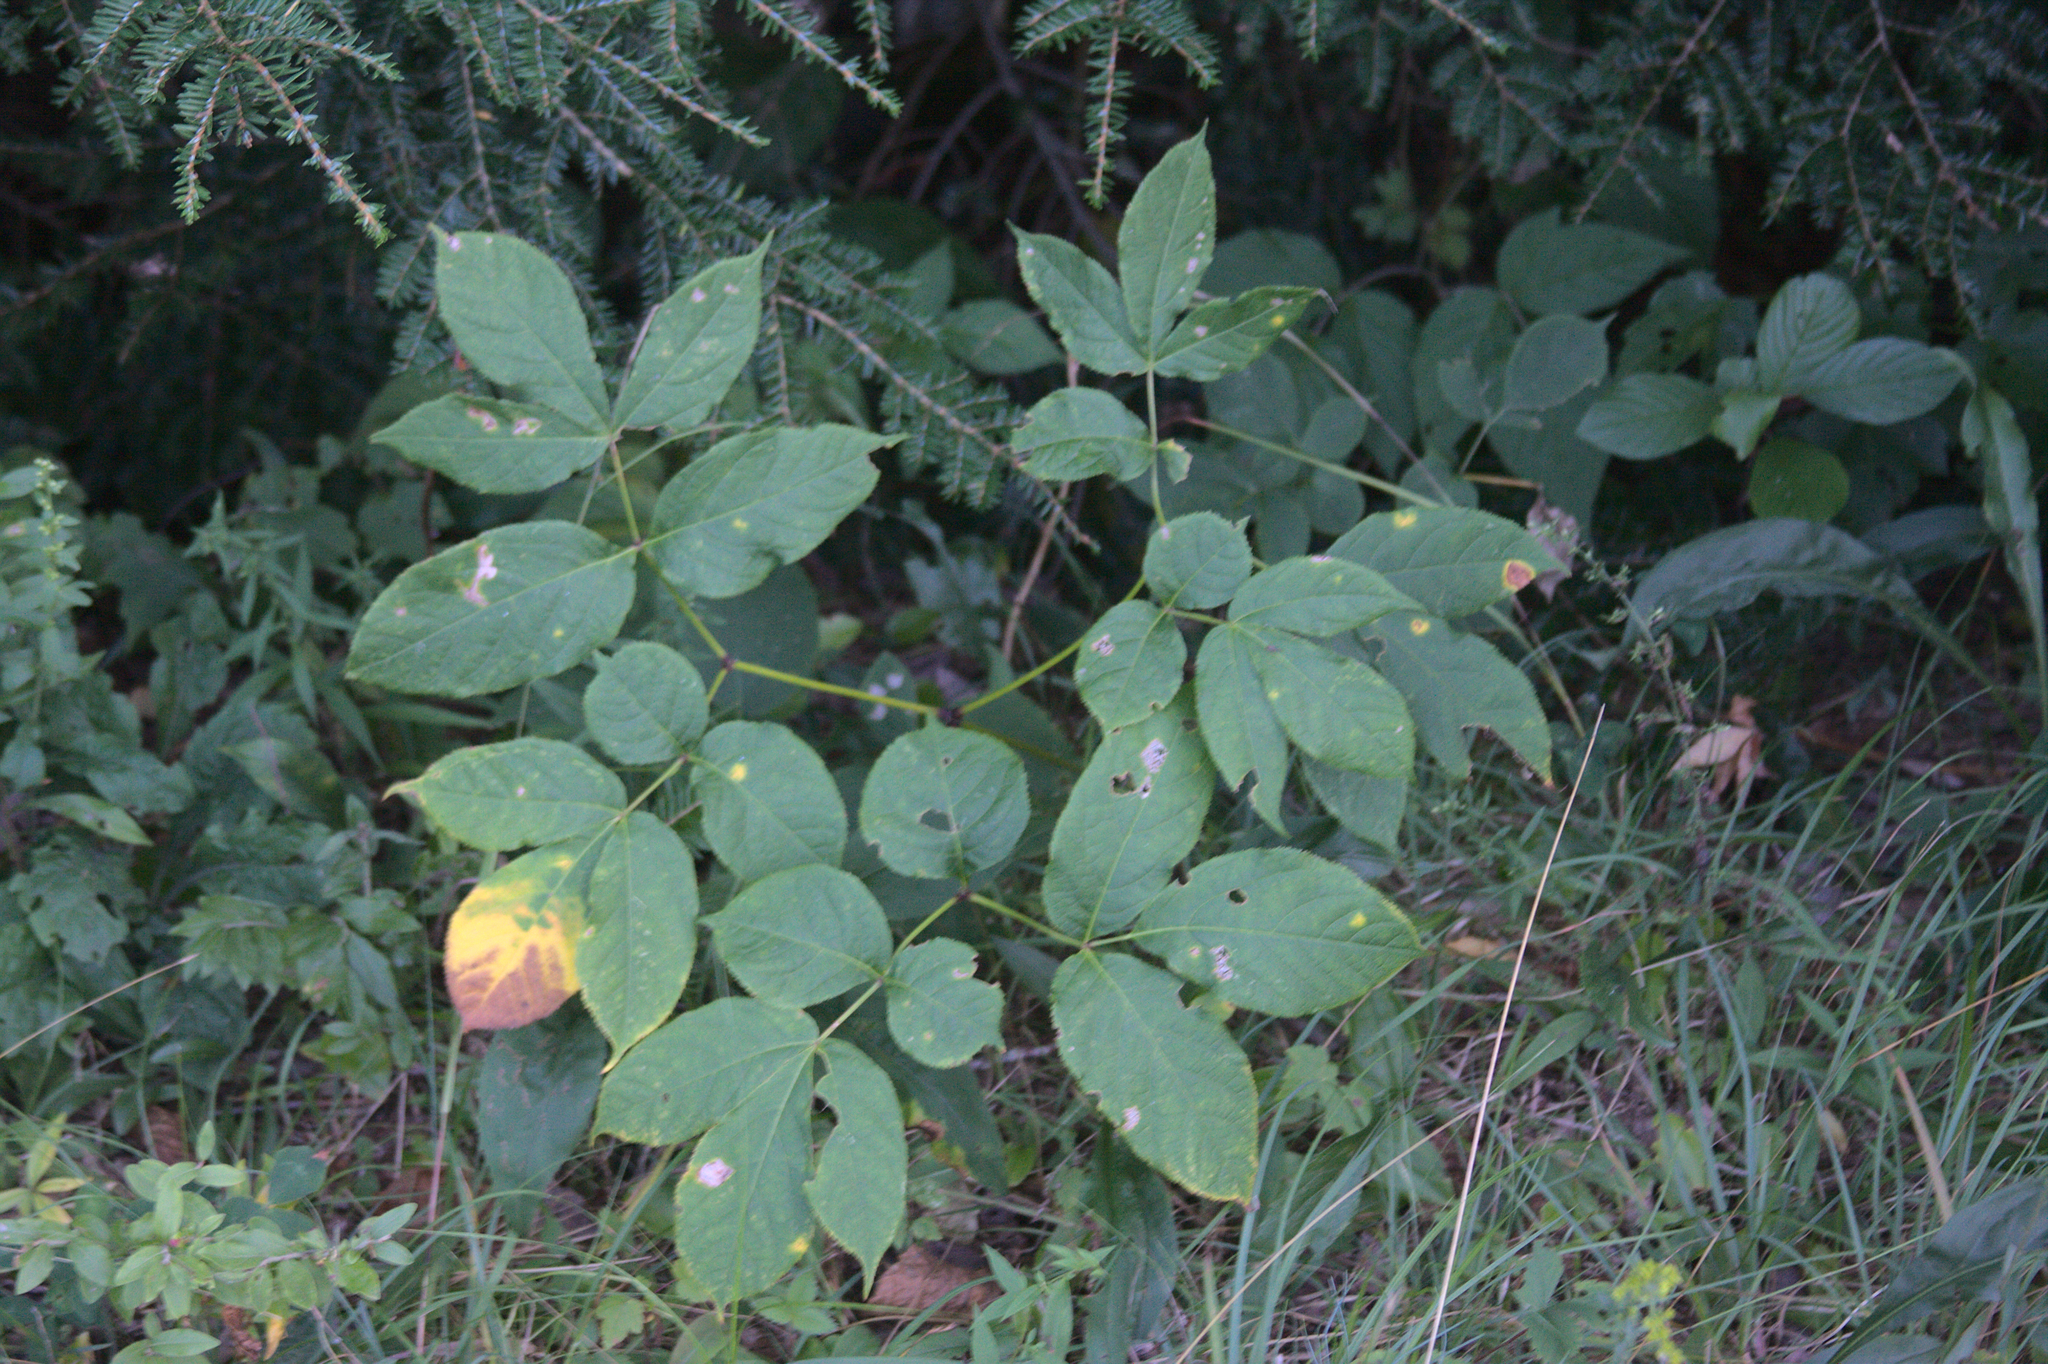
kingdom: Plantae
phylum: Tracheophyta
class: Magnoliopsida
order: Apiales
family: Araliaceae
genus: Aralia
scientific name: Aralia nudicaulis
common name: Wild sarsaparilla
